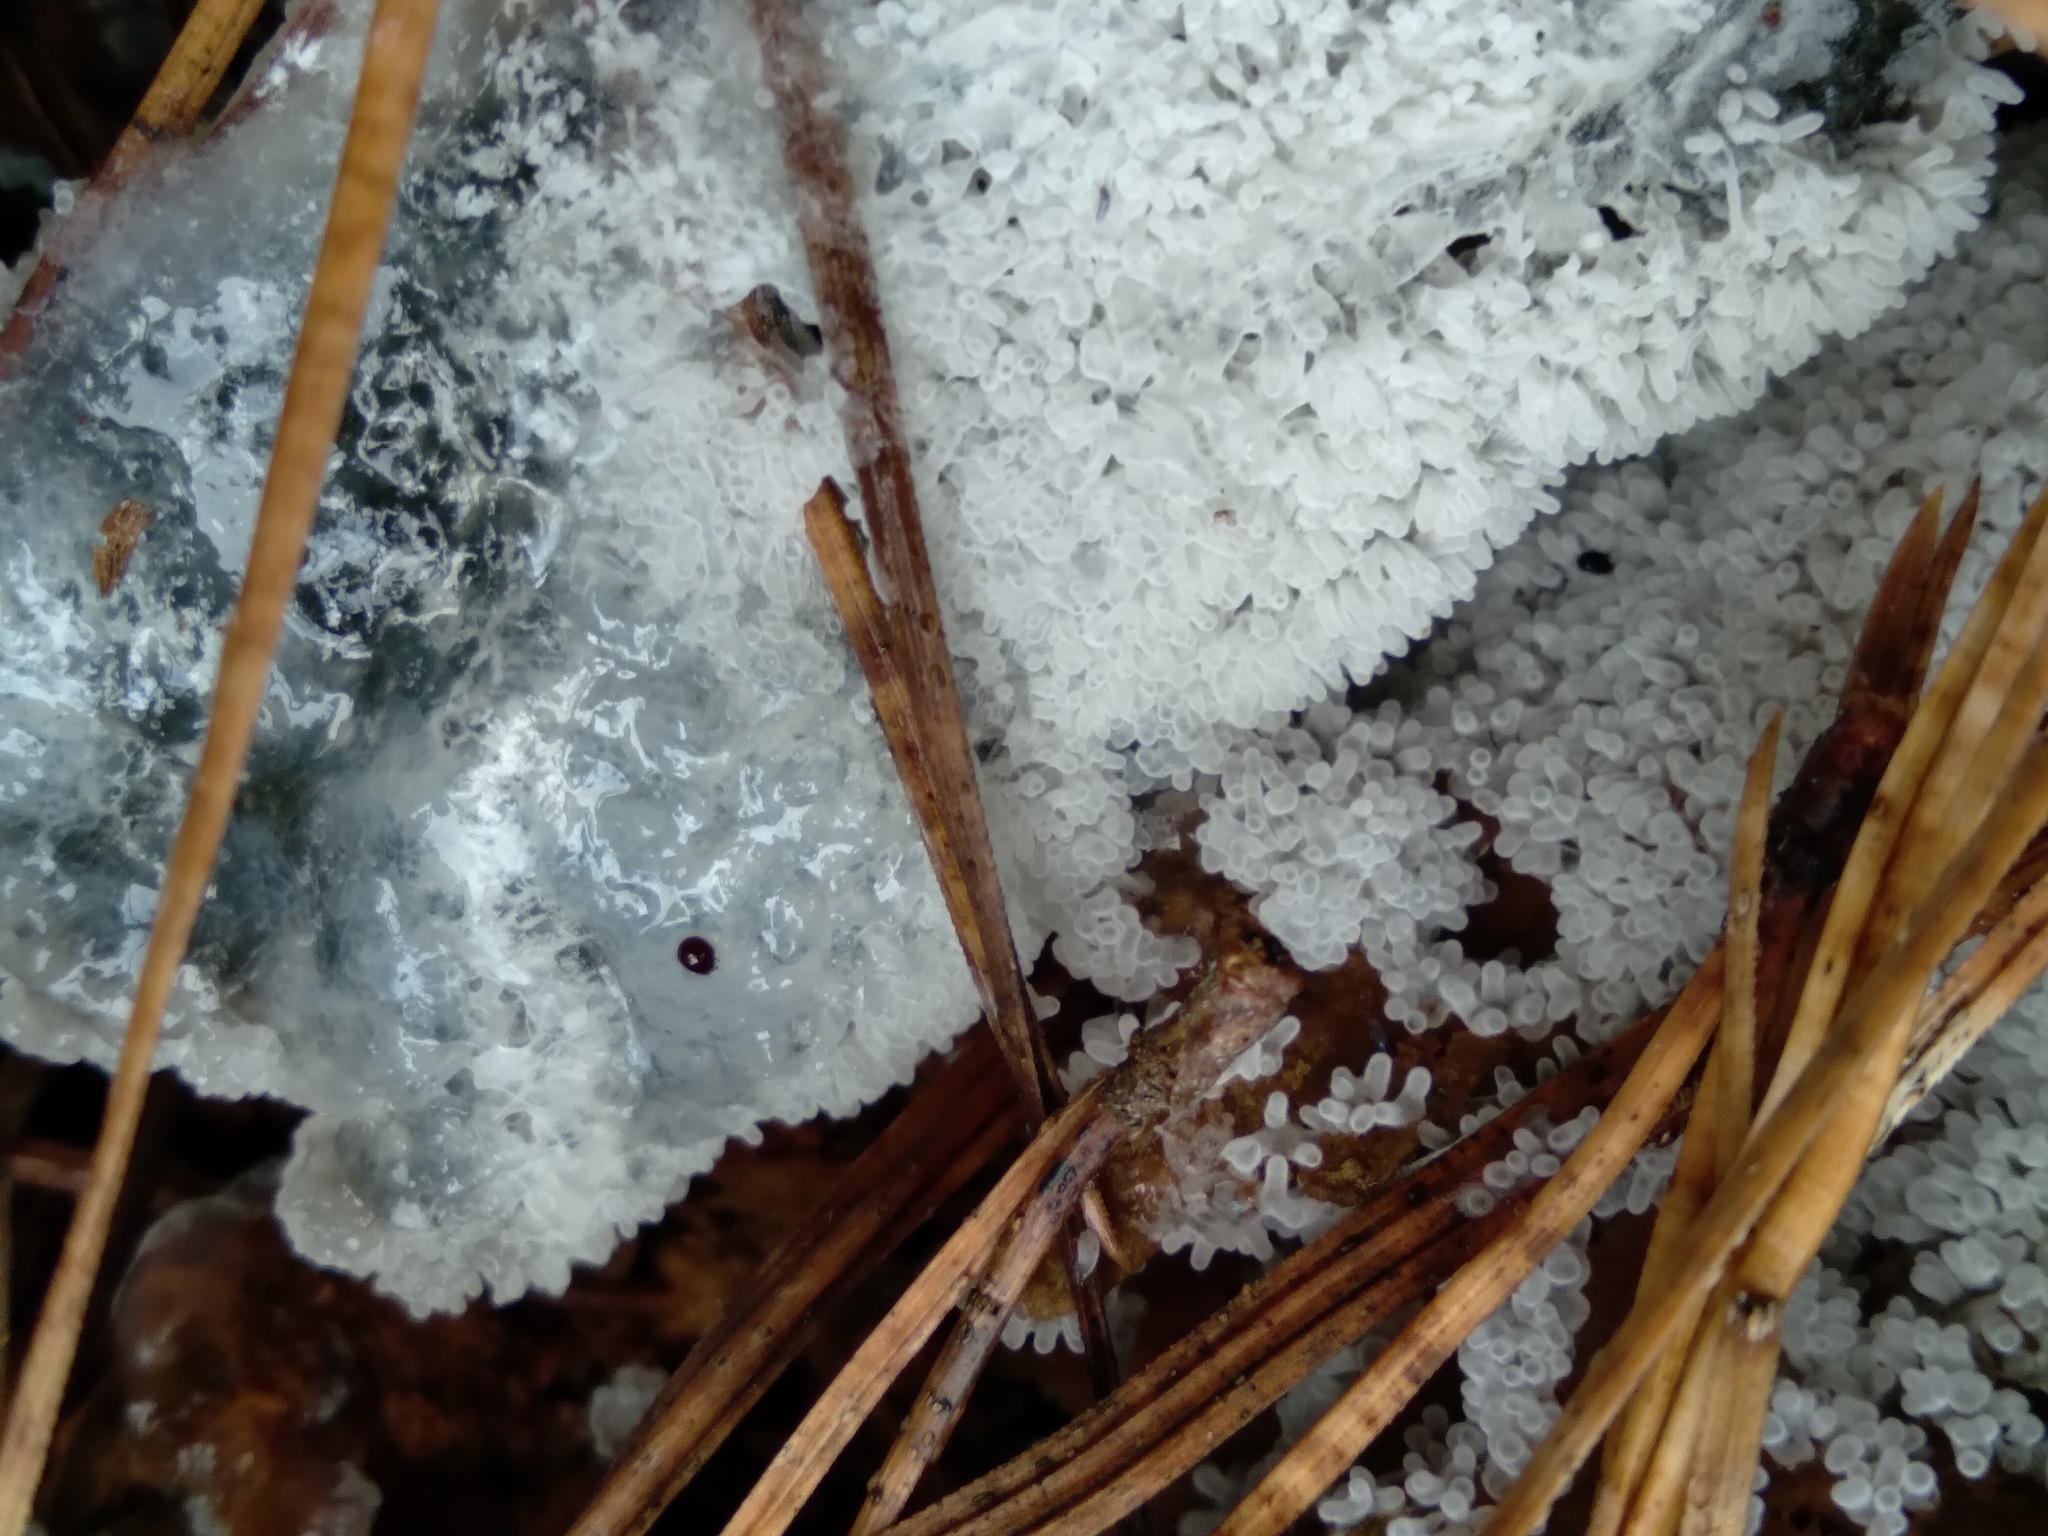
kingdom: Protozoa
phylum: Mycetozoa
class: Protosteliomycetes
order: Ceratiomyxales
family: Ceratiomyxaceae
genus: Ceratiomyxa
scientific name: Ceratiomyxa fruticulosa
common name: Honeycomb coral slime mold
